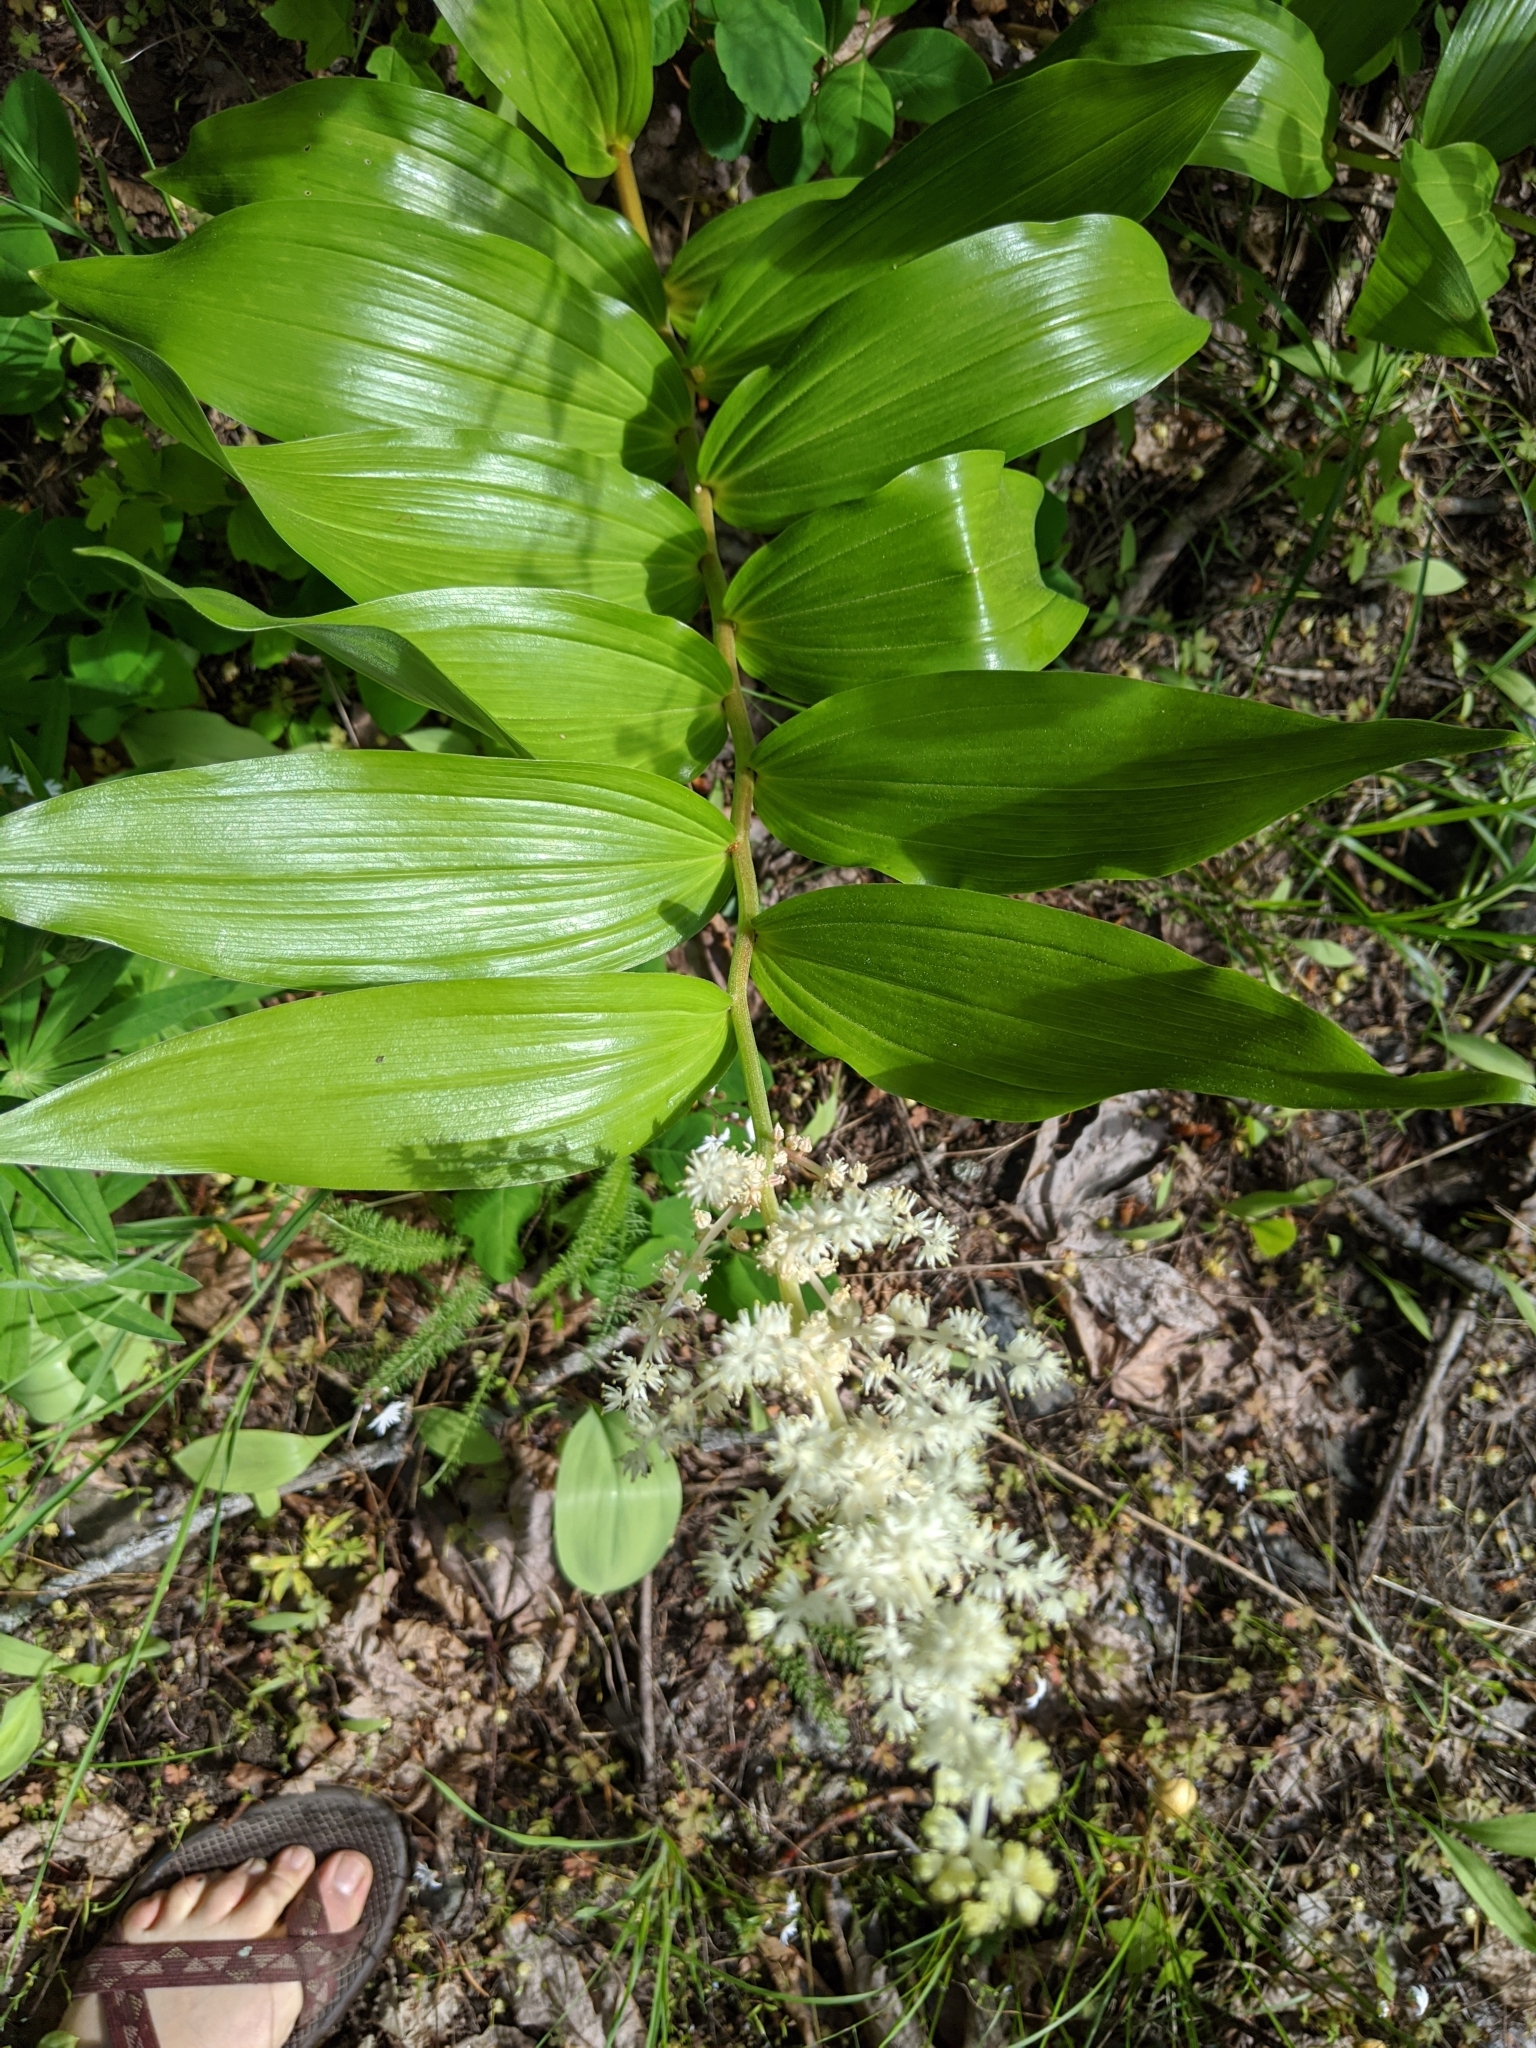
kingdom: Plantae
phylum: Tracheophyta
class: Liliopsida
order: Asparagales
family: Asparagaceae
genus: Maianthemum
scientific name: Maianthemum racemosum
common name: False spikenard
